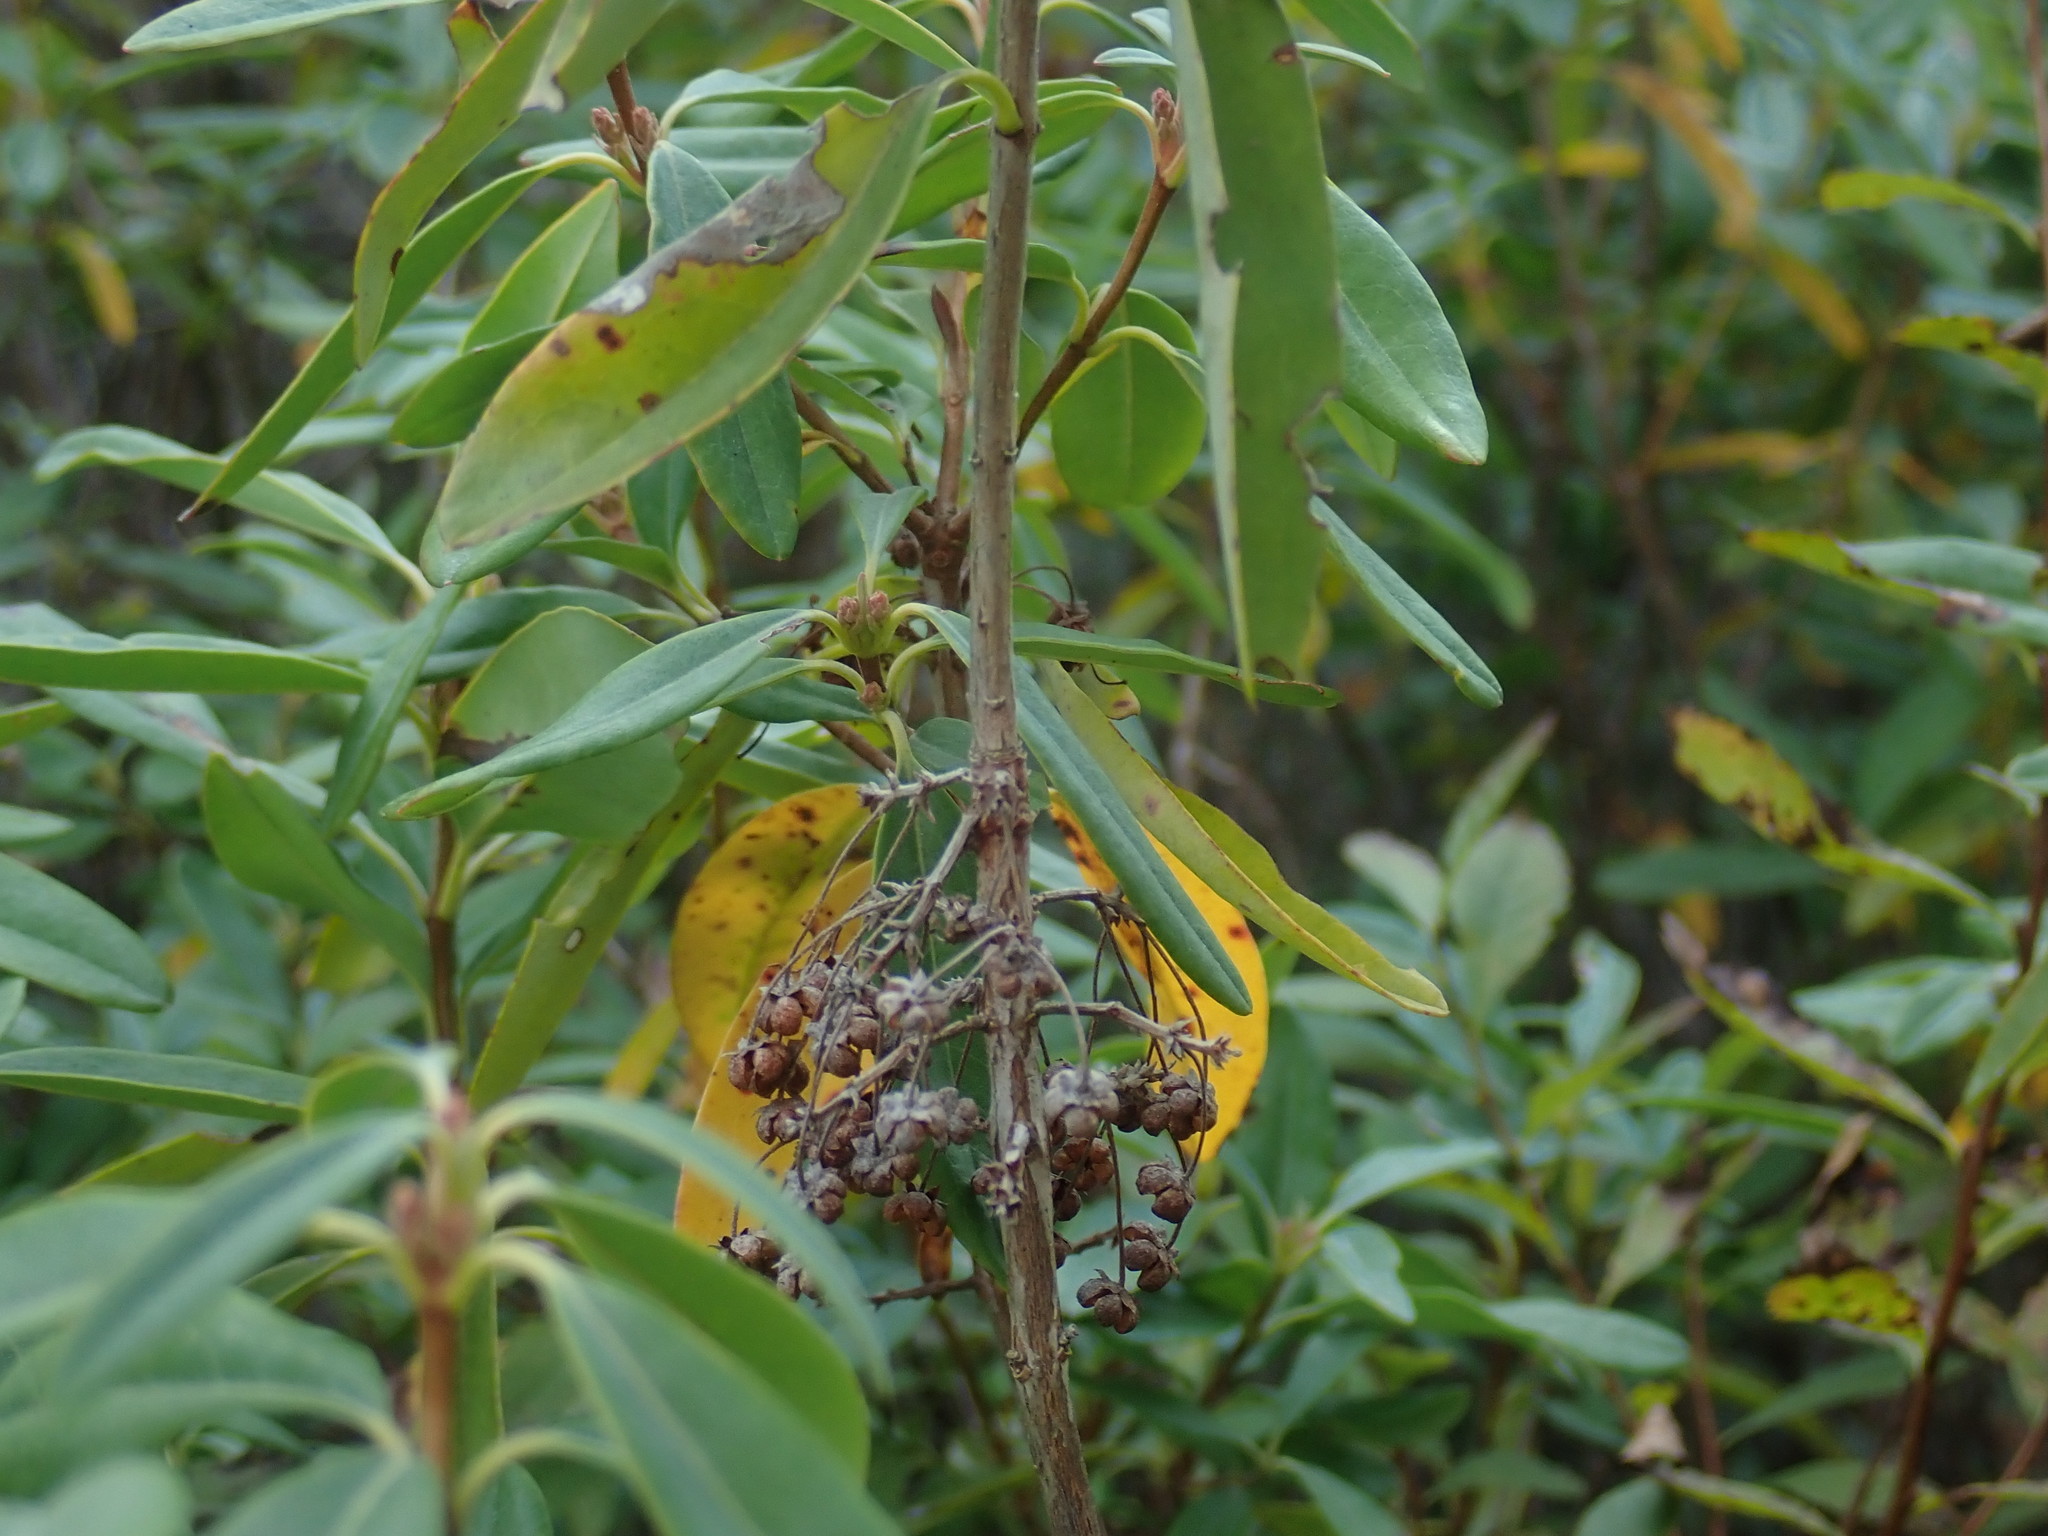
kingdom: Plantae
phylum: Tracheophyta
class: Magnoliopsida
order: Ericales
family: Ericaceae
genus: Kalmia
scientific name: Kalmia angustifolia
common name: Sheep-laurel
